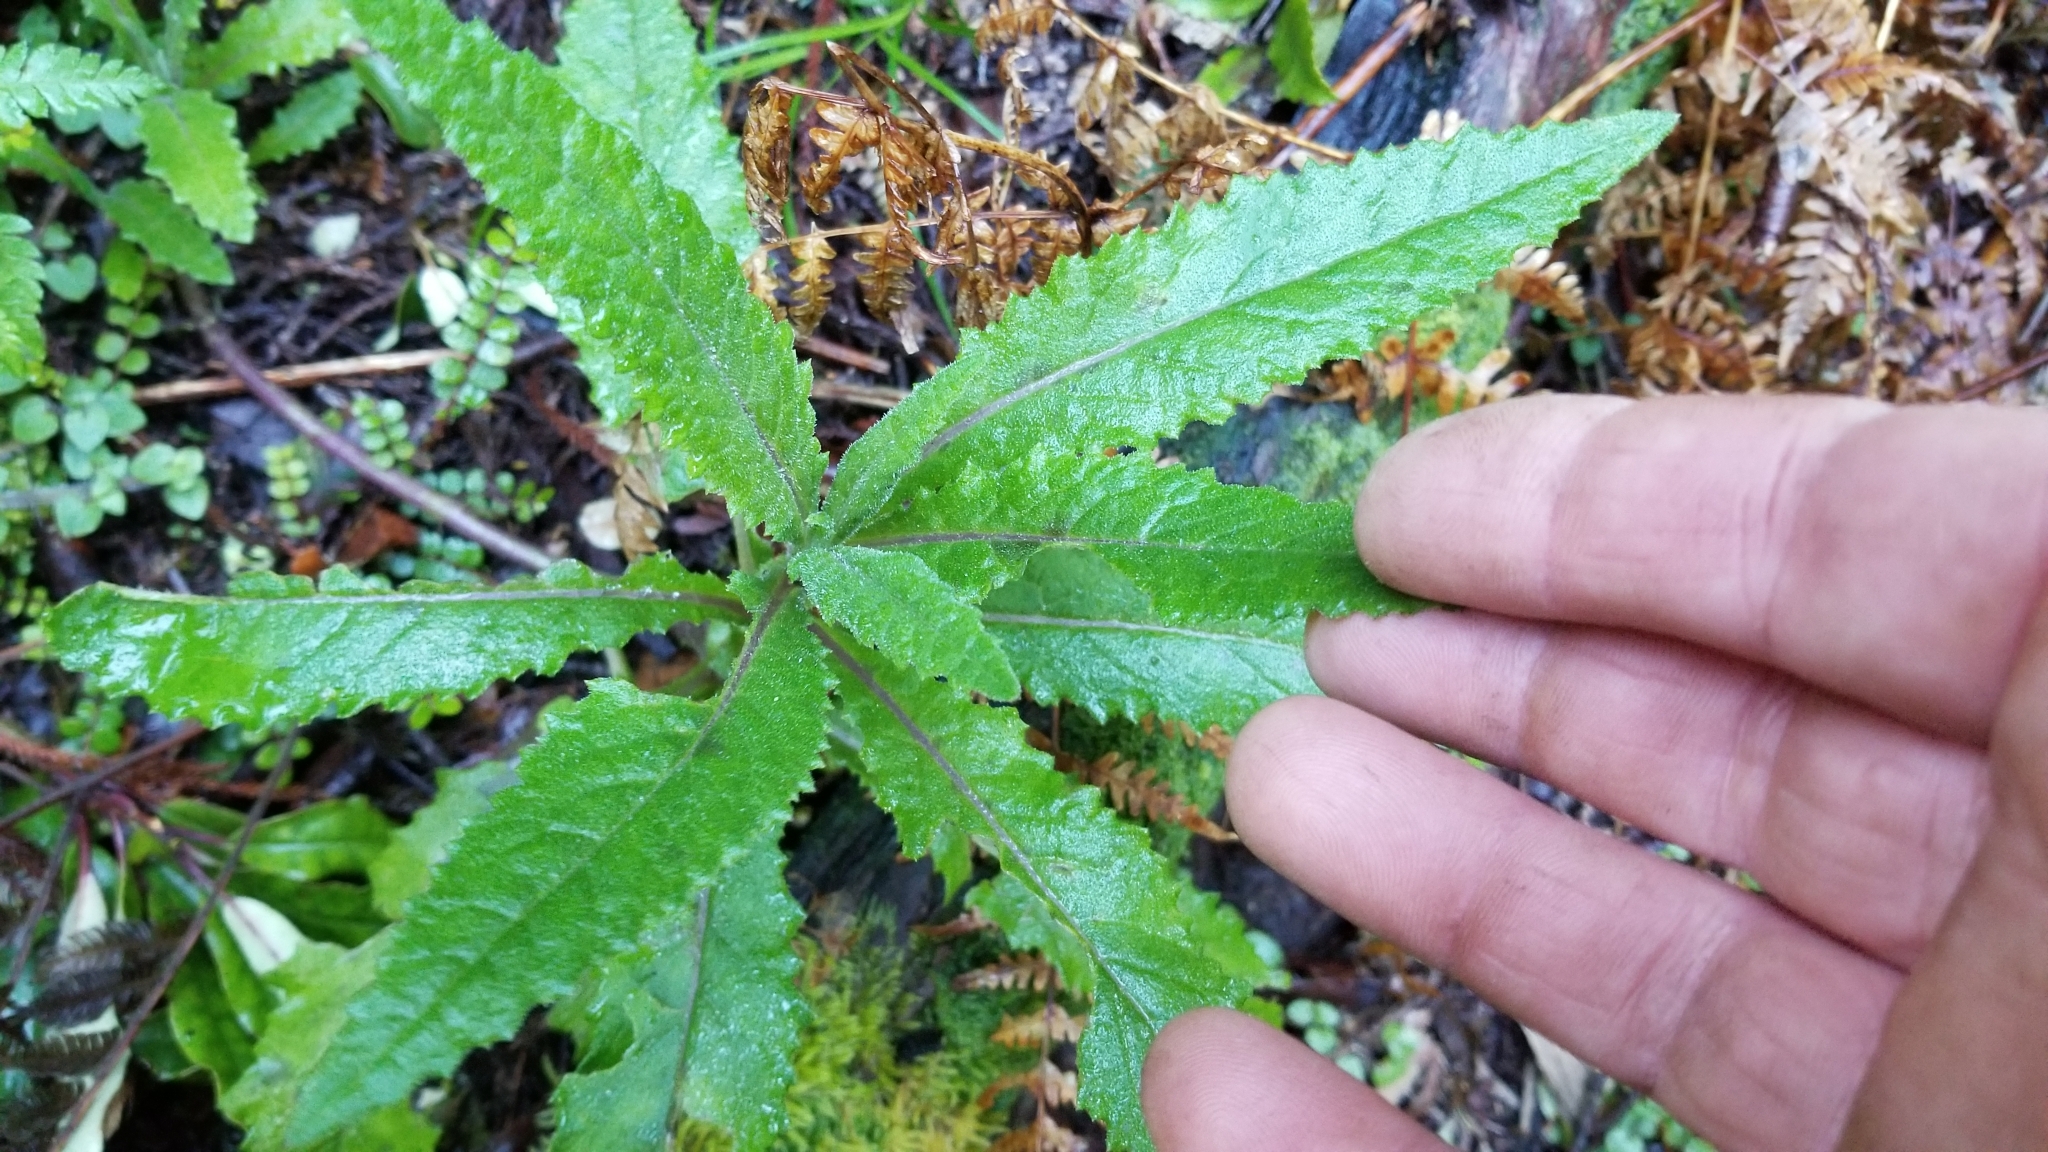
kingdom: Plantae
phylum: Tracheophyta
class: Magnoliopsida
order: Asterales
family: Asteraceae
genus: Senecio
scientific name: Senecio minimus
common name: Toothed fireweed
